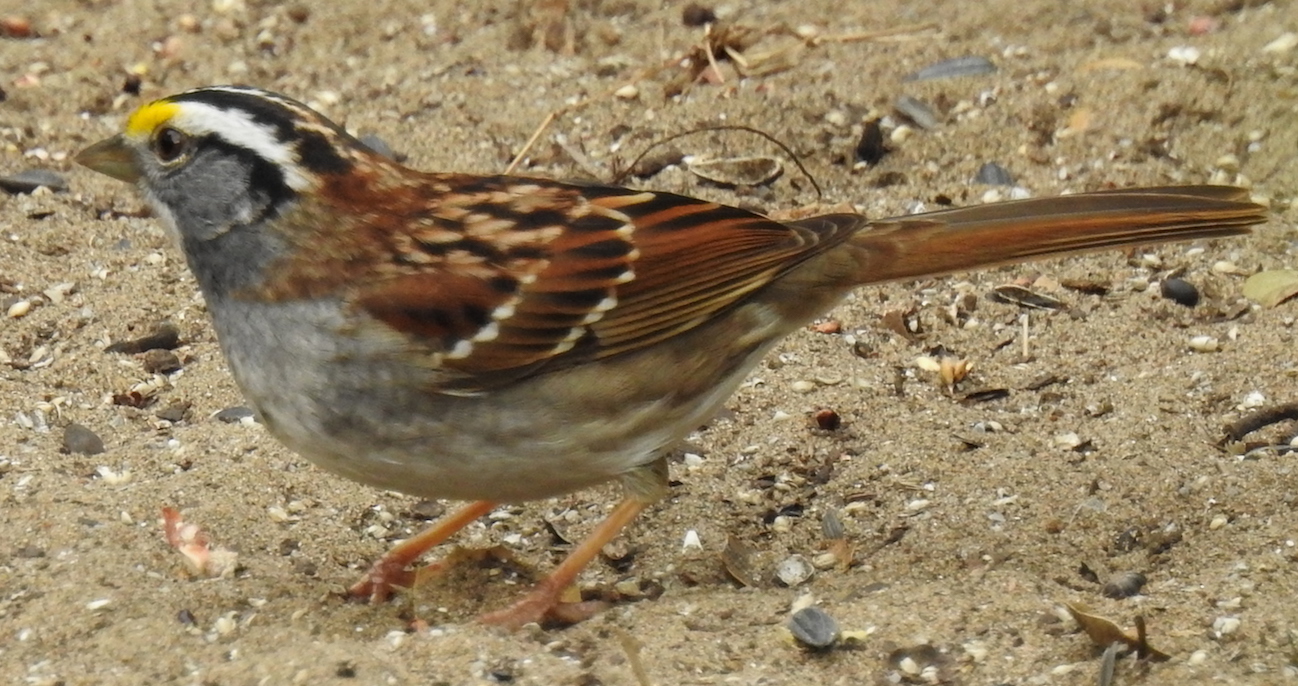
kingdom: Animalia
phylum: Chordata
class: Aves
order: Passeriformes
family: Passerellidae
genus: Zonotrichia
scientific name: Zonotrichia albicollis
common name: White-throated sparrow
